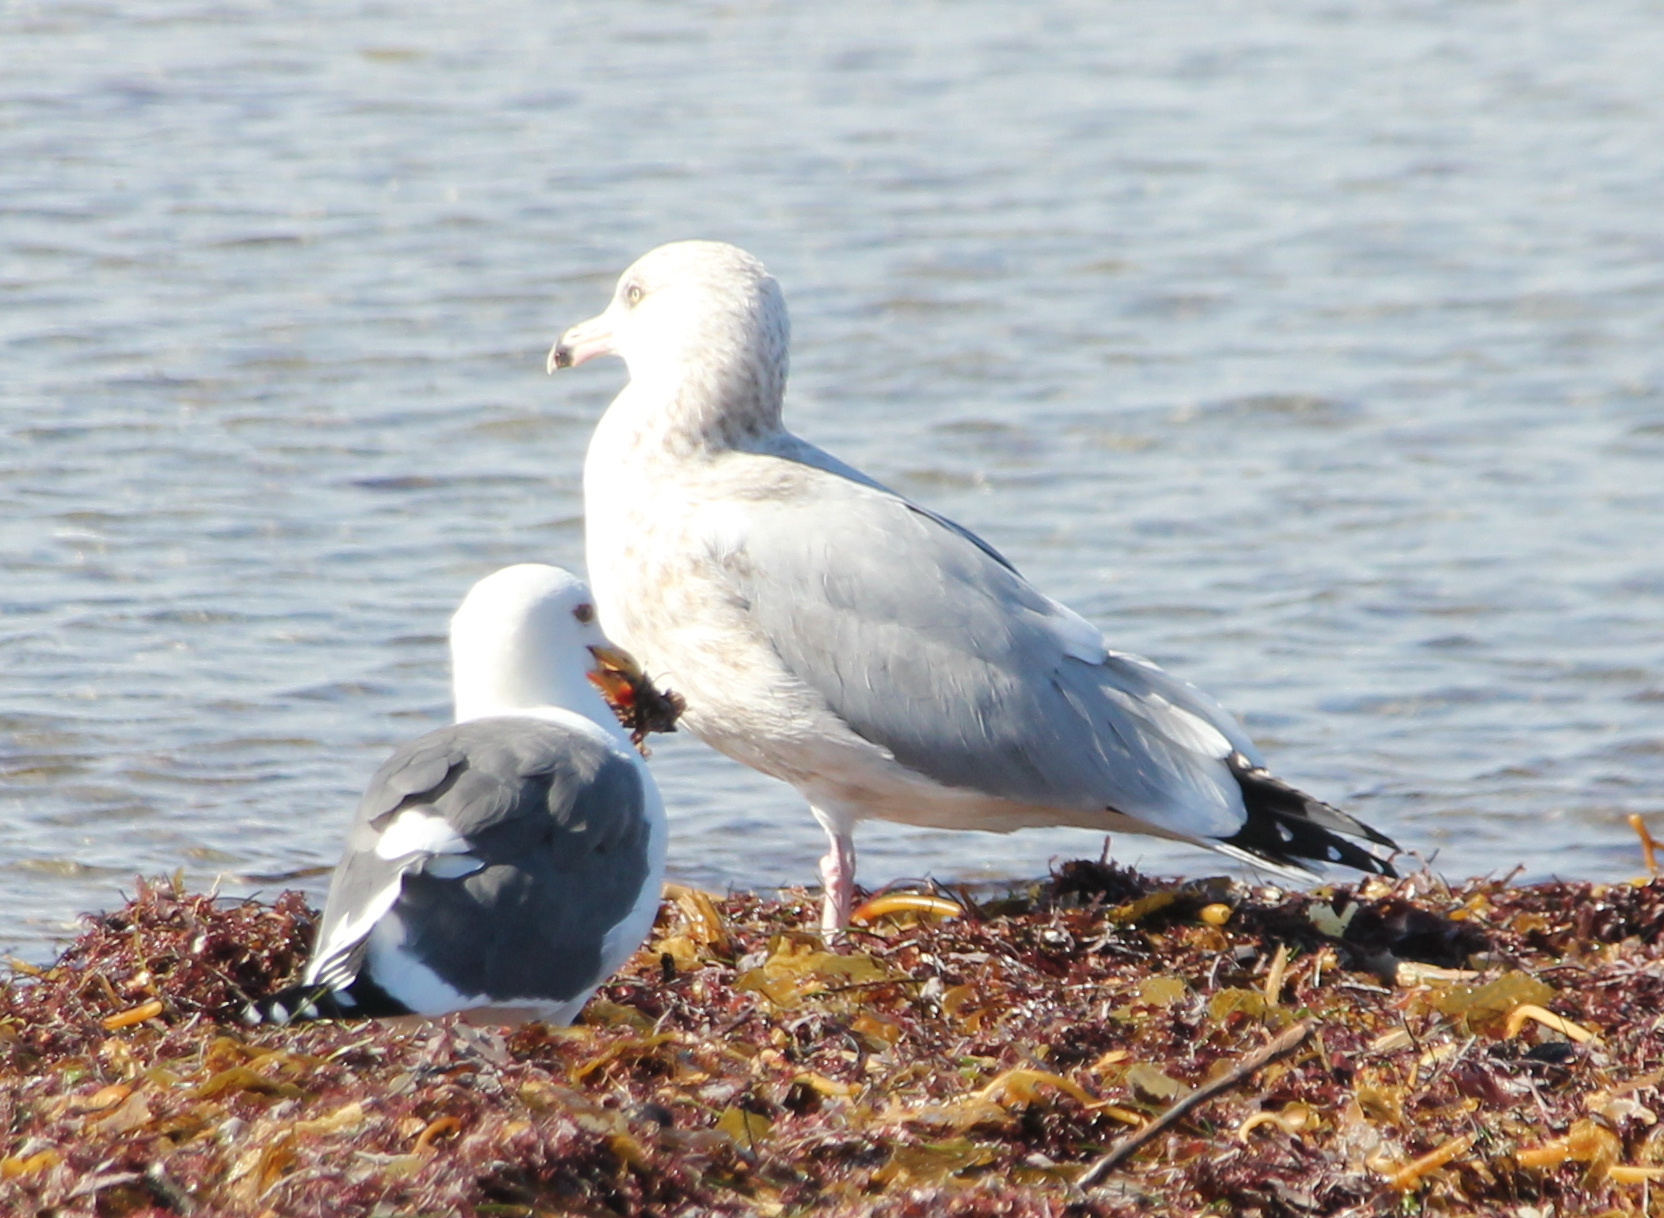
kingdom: Animalia
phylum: Chordata
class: Aves
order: Charadriiformes
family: Laridae
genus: Larus
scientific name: Larus smithsonianus
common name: American herring gull
